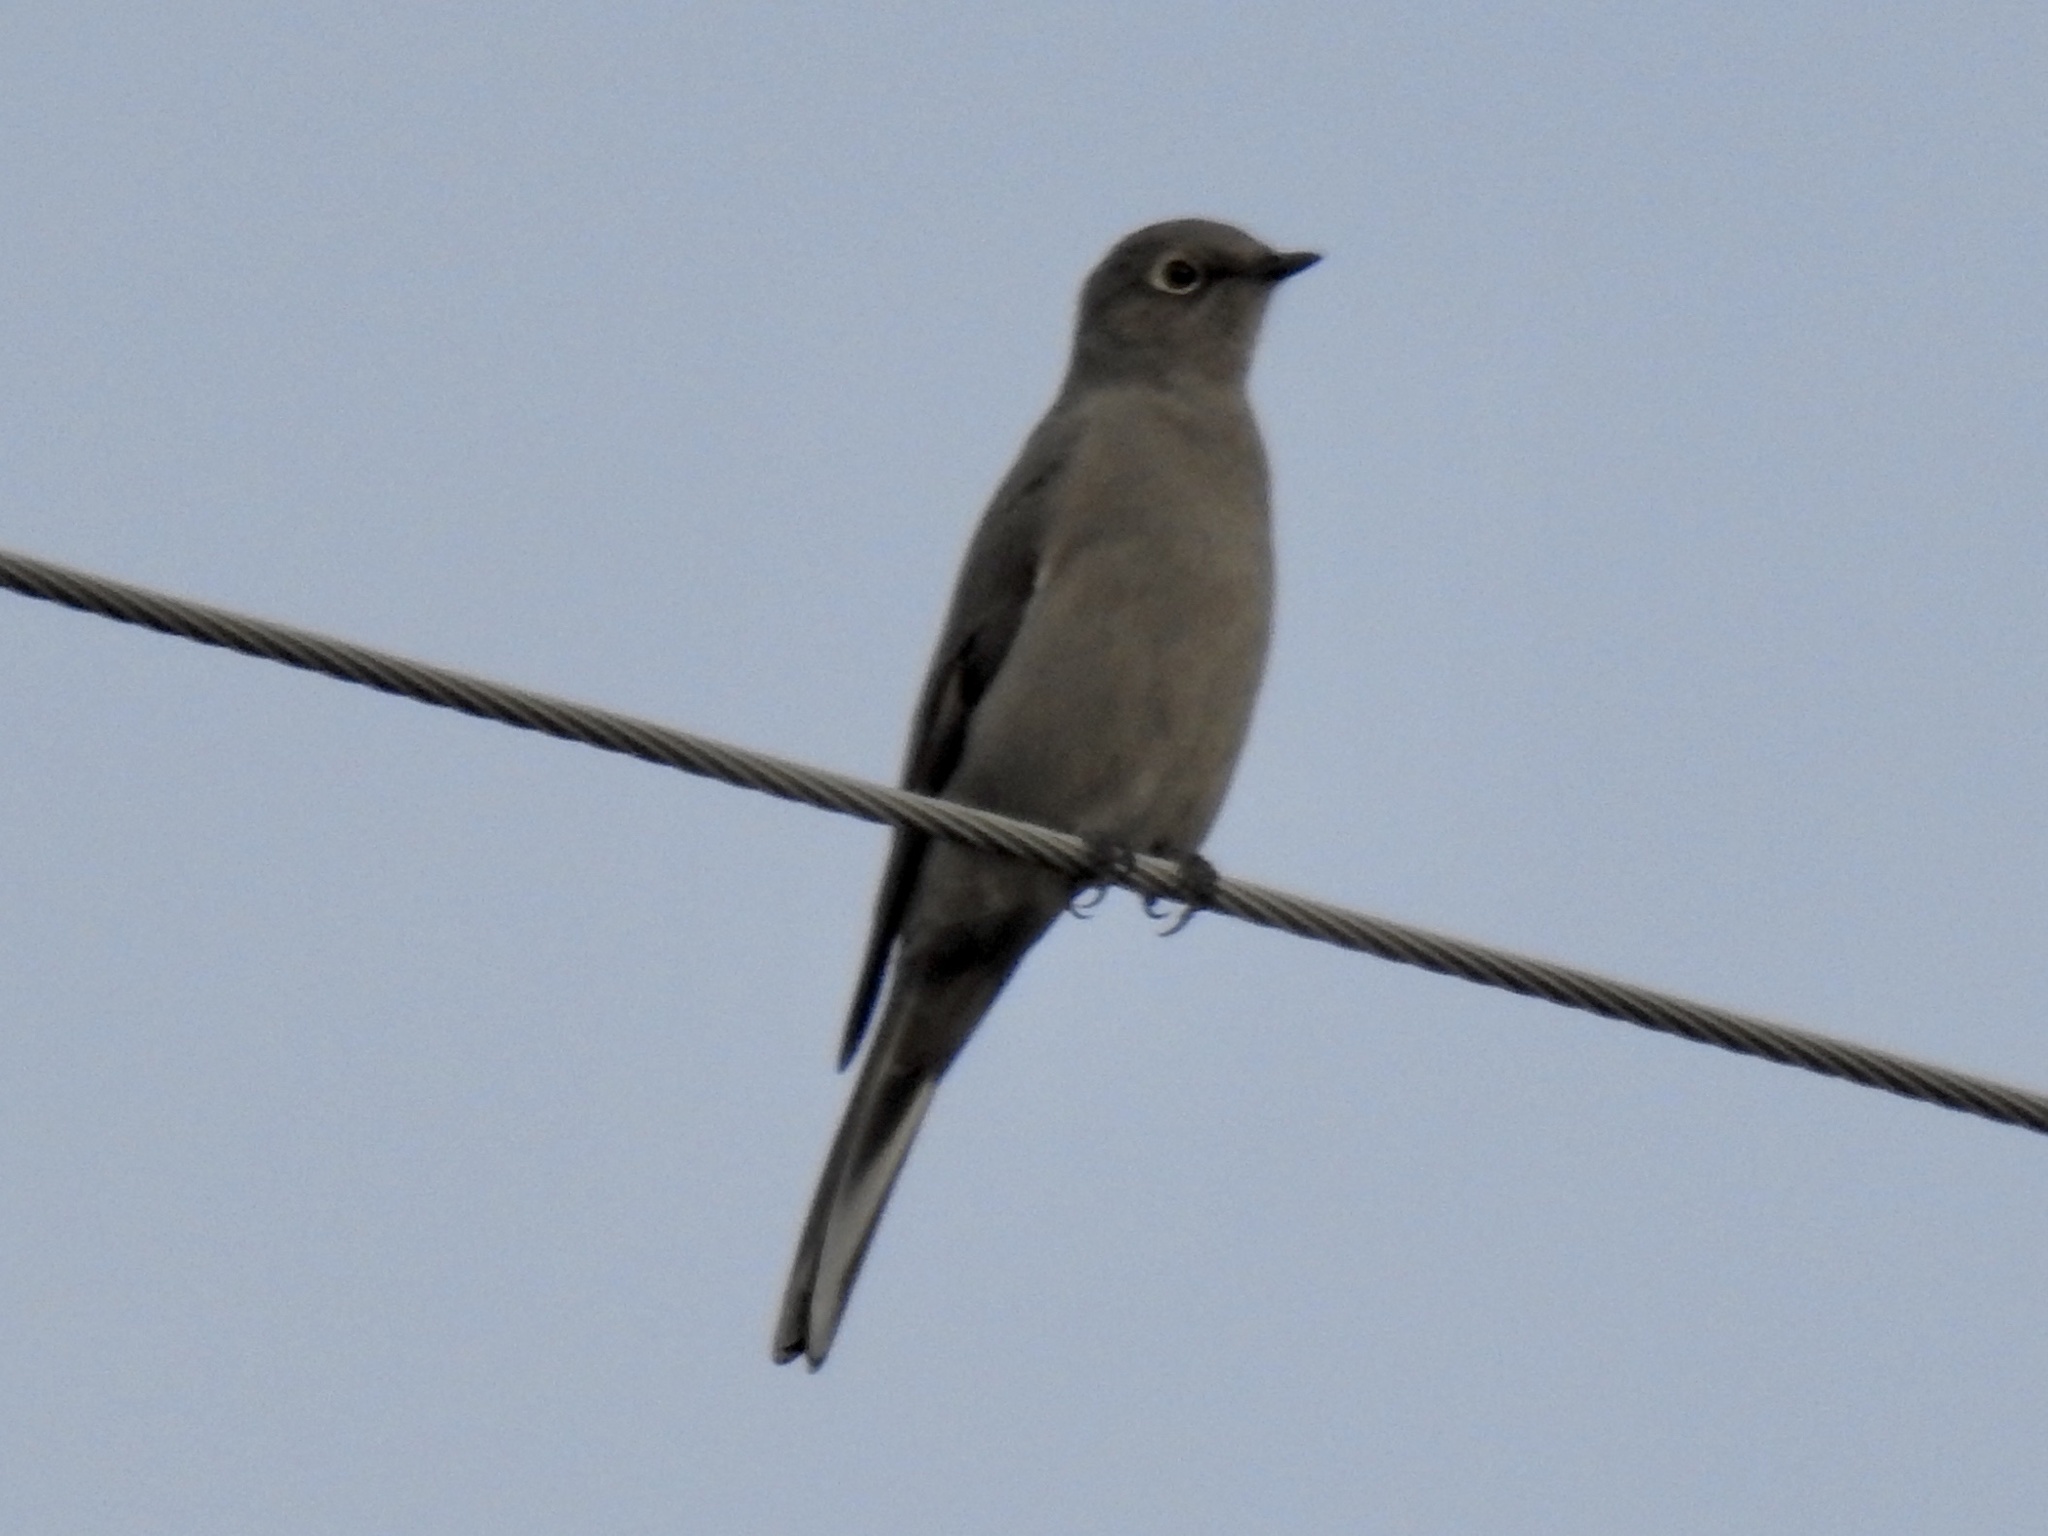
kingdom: Animalia
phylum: Chordata
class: Aves
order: Passeriformes
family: Turdidae
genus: Myadestes
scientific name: Myadestes townsendi
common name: Townsend's solitaire
